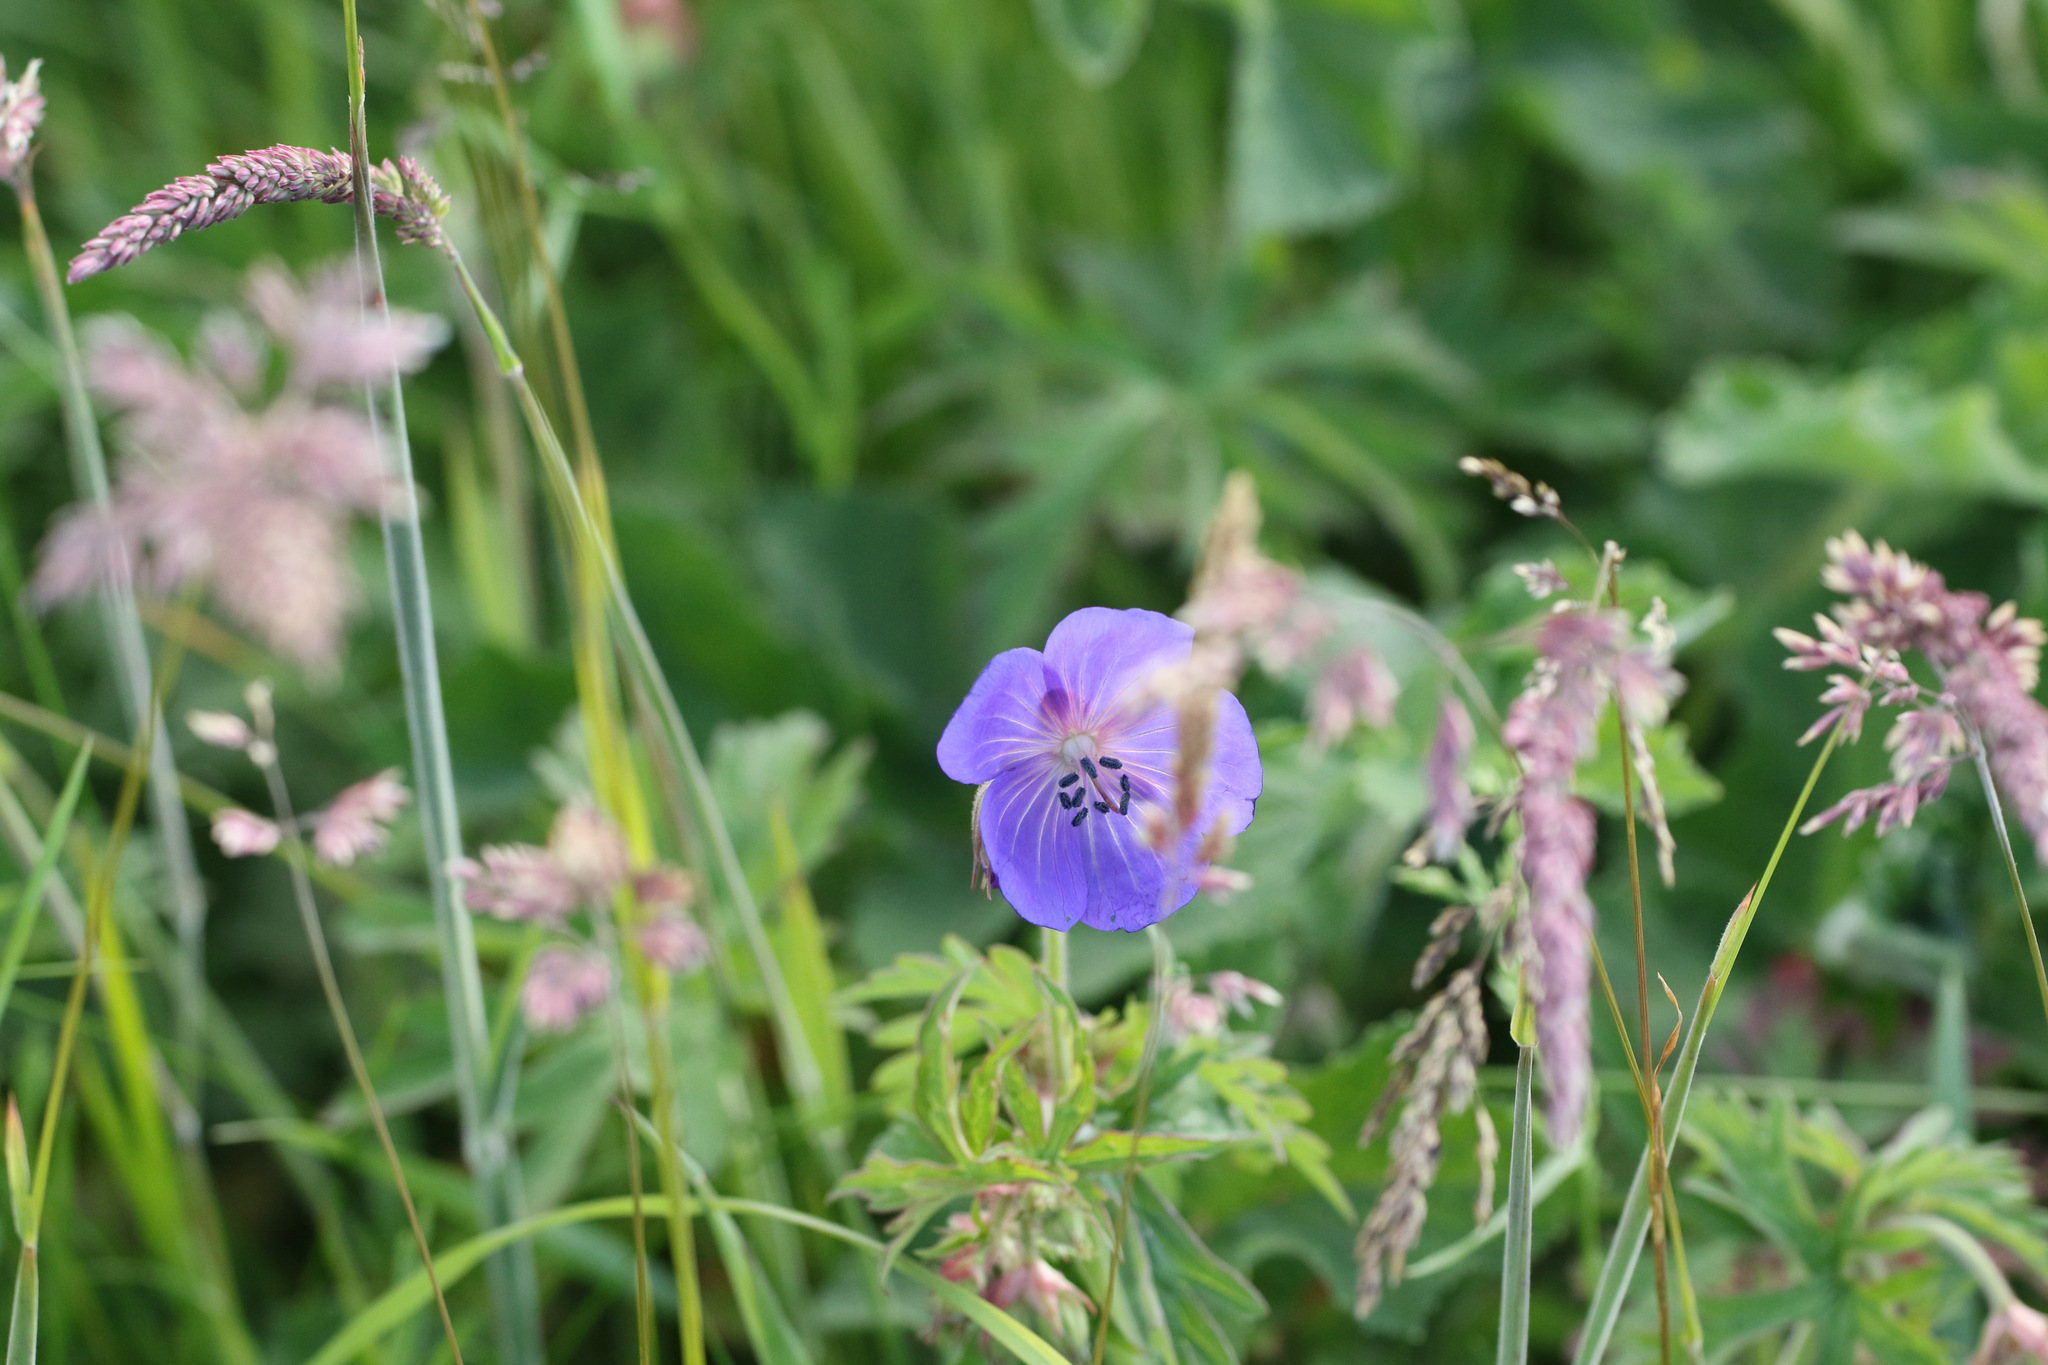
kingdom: Plantae
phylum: Tracheophyta
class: Magnoliopsida
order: Geraniales
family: Geraniaceae
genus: Geranium
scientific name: Geranium pratense
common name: Meadow crane's-bill
